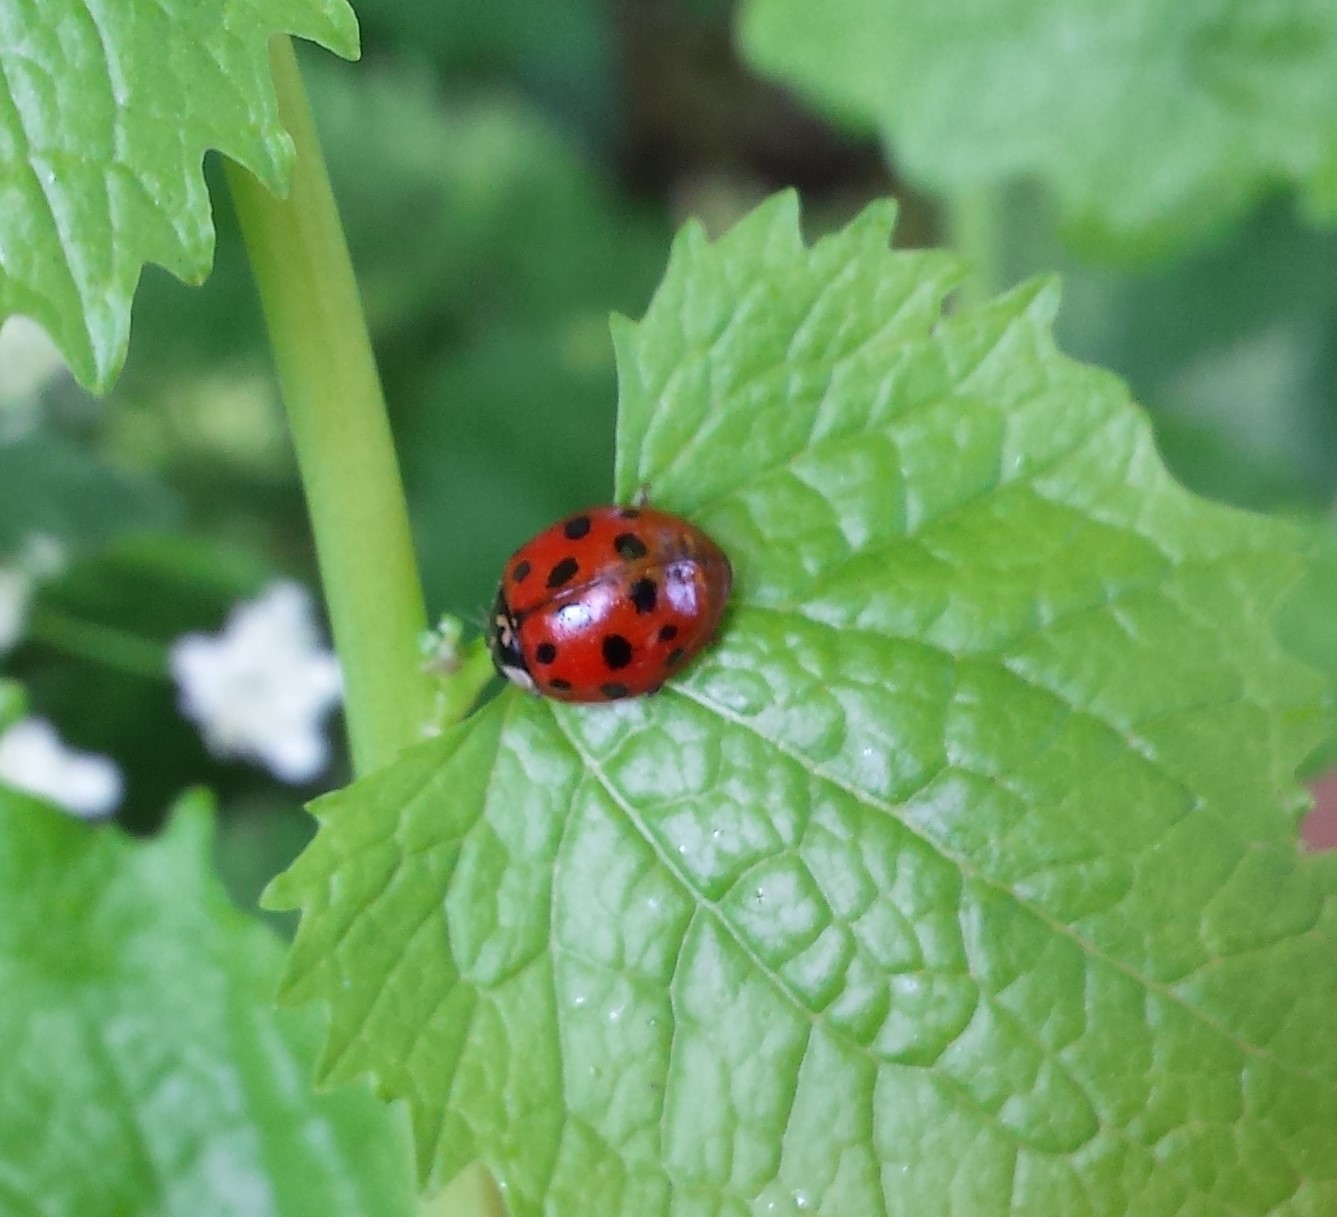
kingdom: Animalia
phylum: Arthropoda
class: Insecta
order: Coleoptera
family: Coccinellidae
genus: Harmonia
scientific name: Harmonia axyridis
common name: Harlequin ladybird
